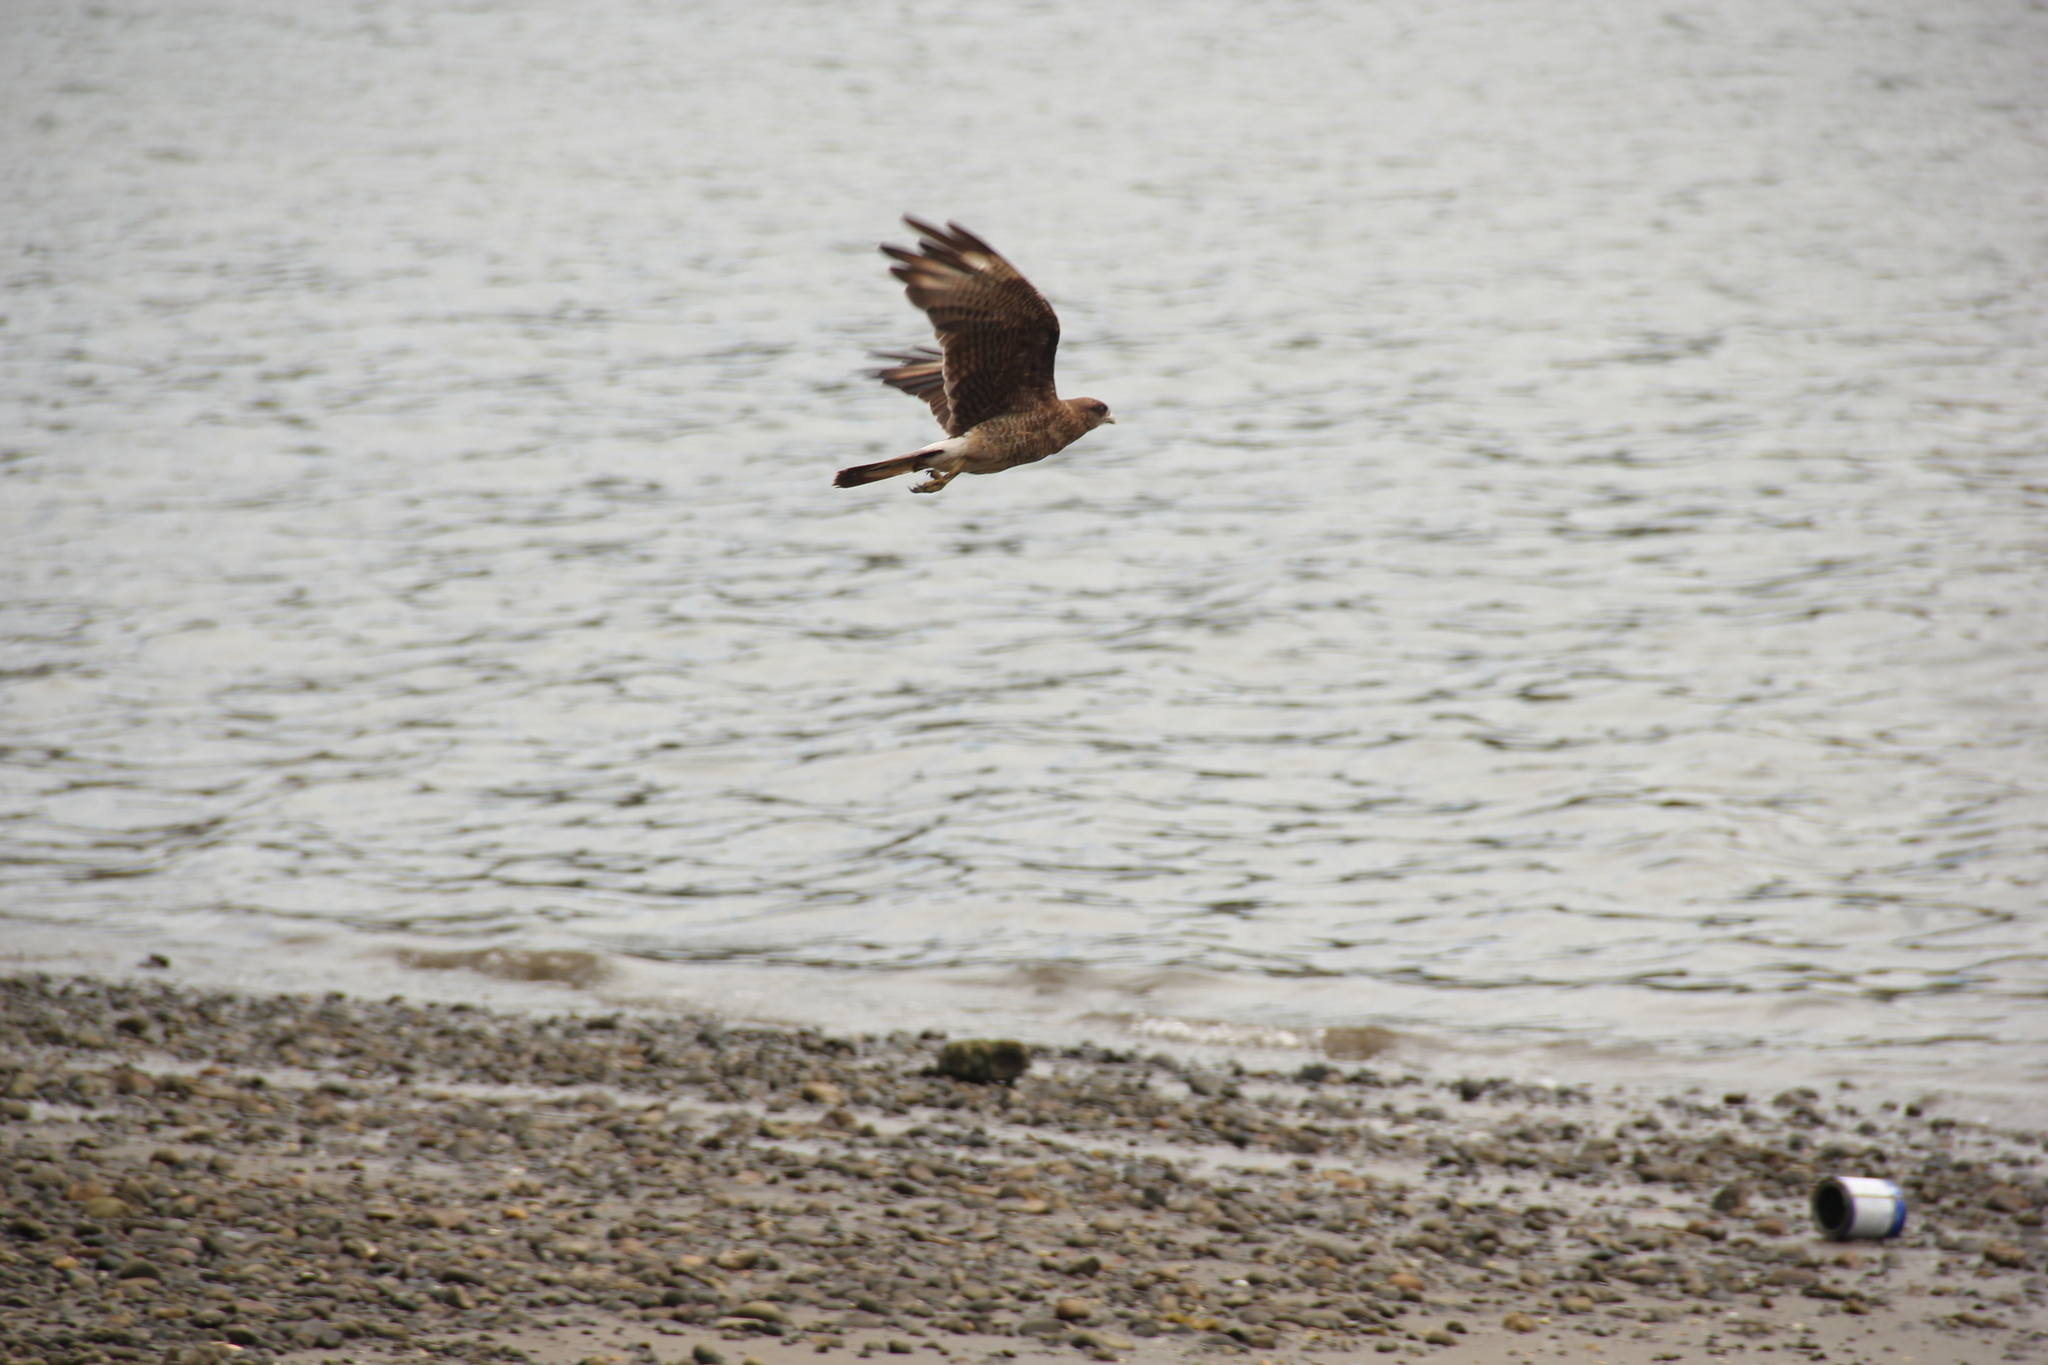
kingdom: Animalia
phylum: Chordata
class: Aves
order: Falconiformes
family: Falconidae
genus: Daptrius
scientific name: Daptrius
